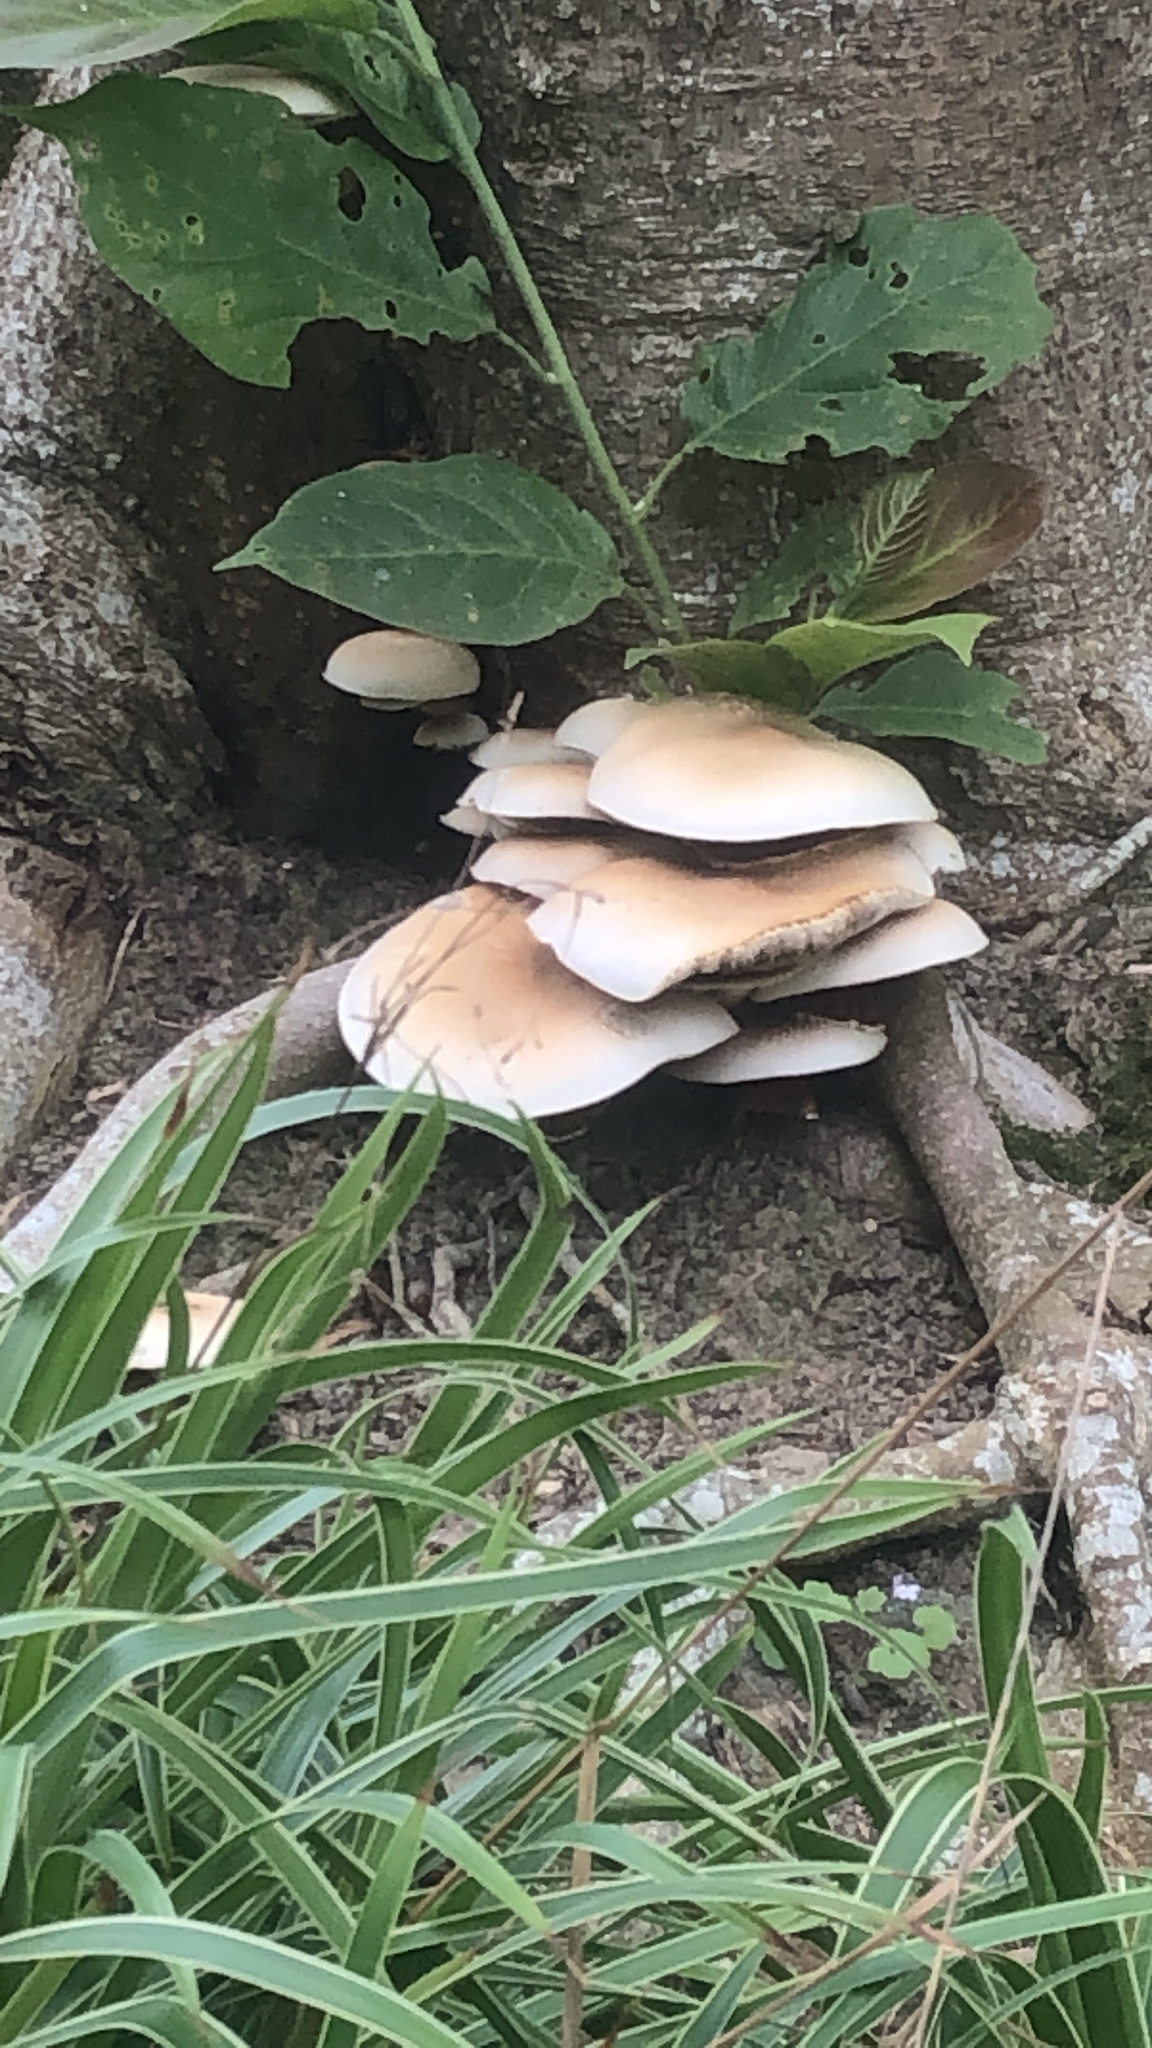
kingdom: Fungi
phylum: Basidiomycota
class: Agaricomycetes
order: Agaricales
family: Tubariaceae
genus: Cyclocybe
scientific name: Cyclocybe parasitica
